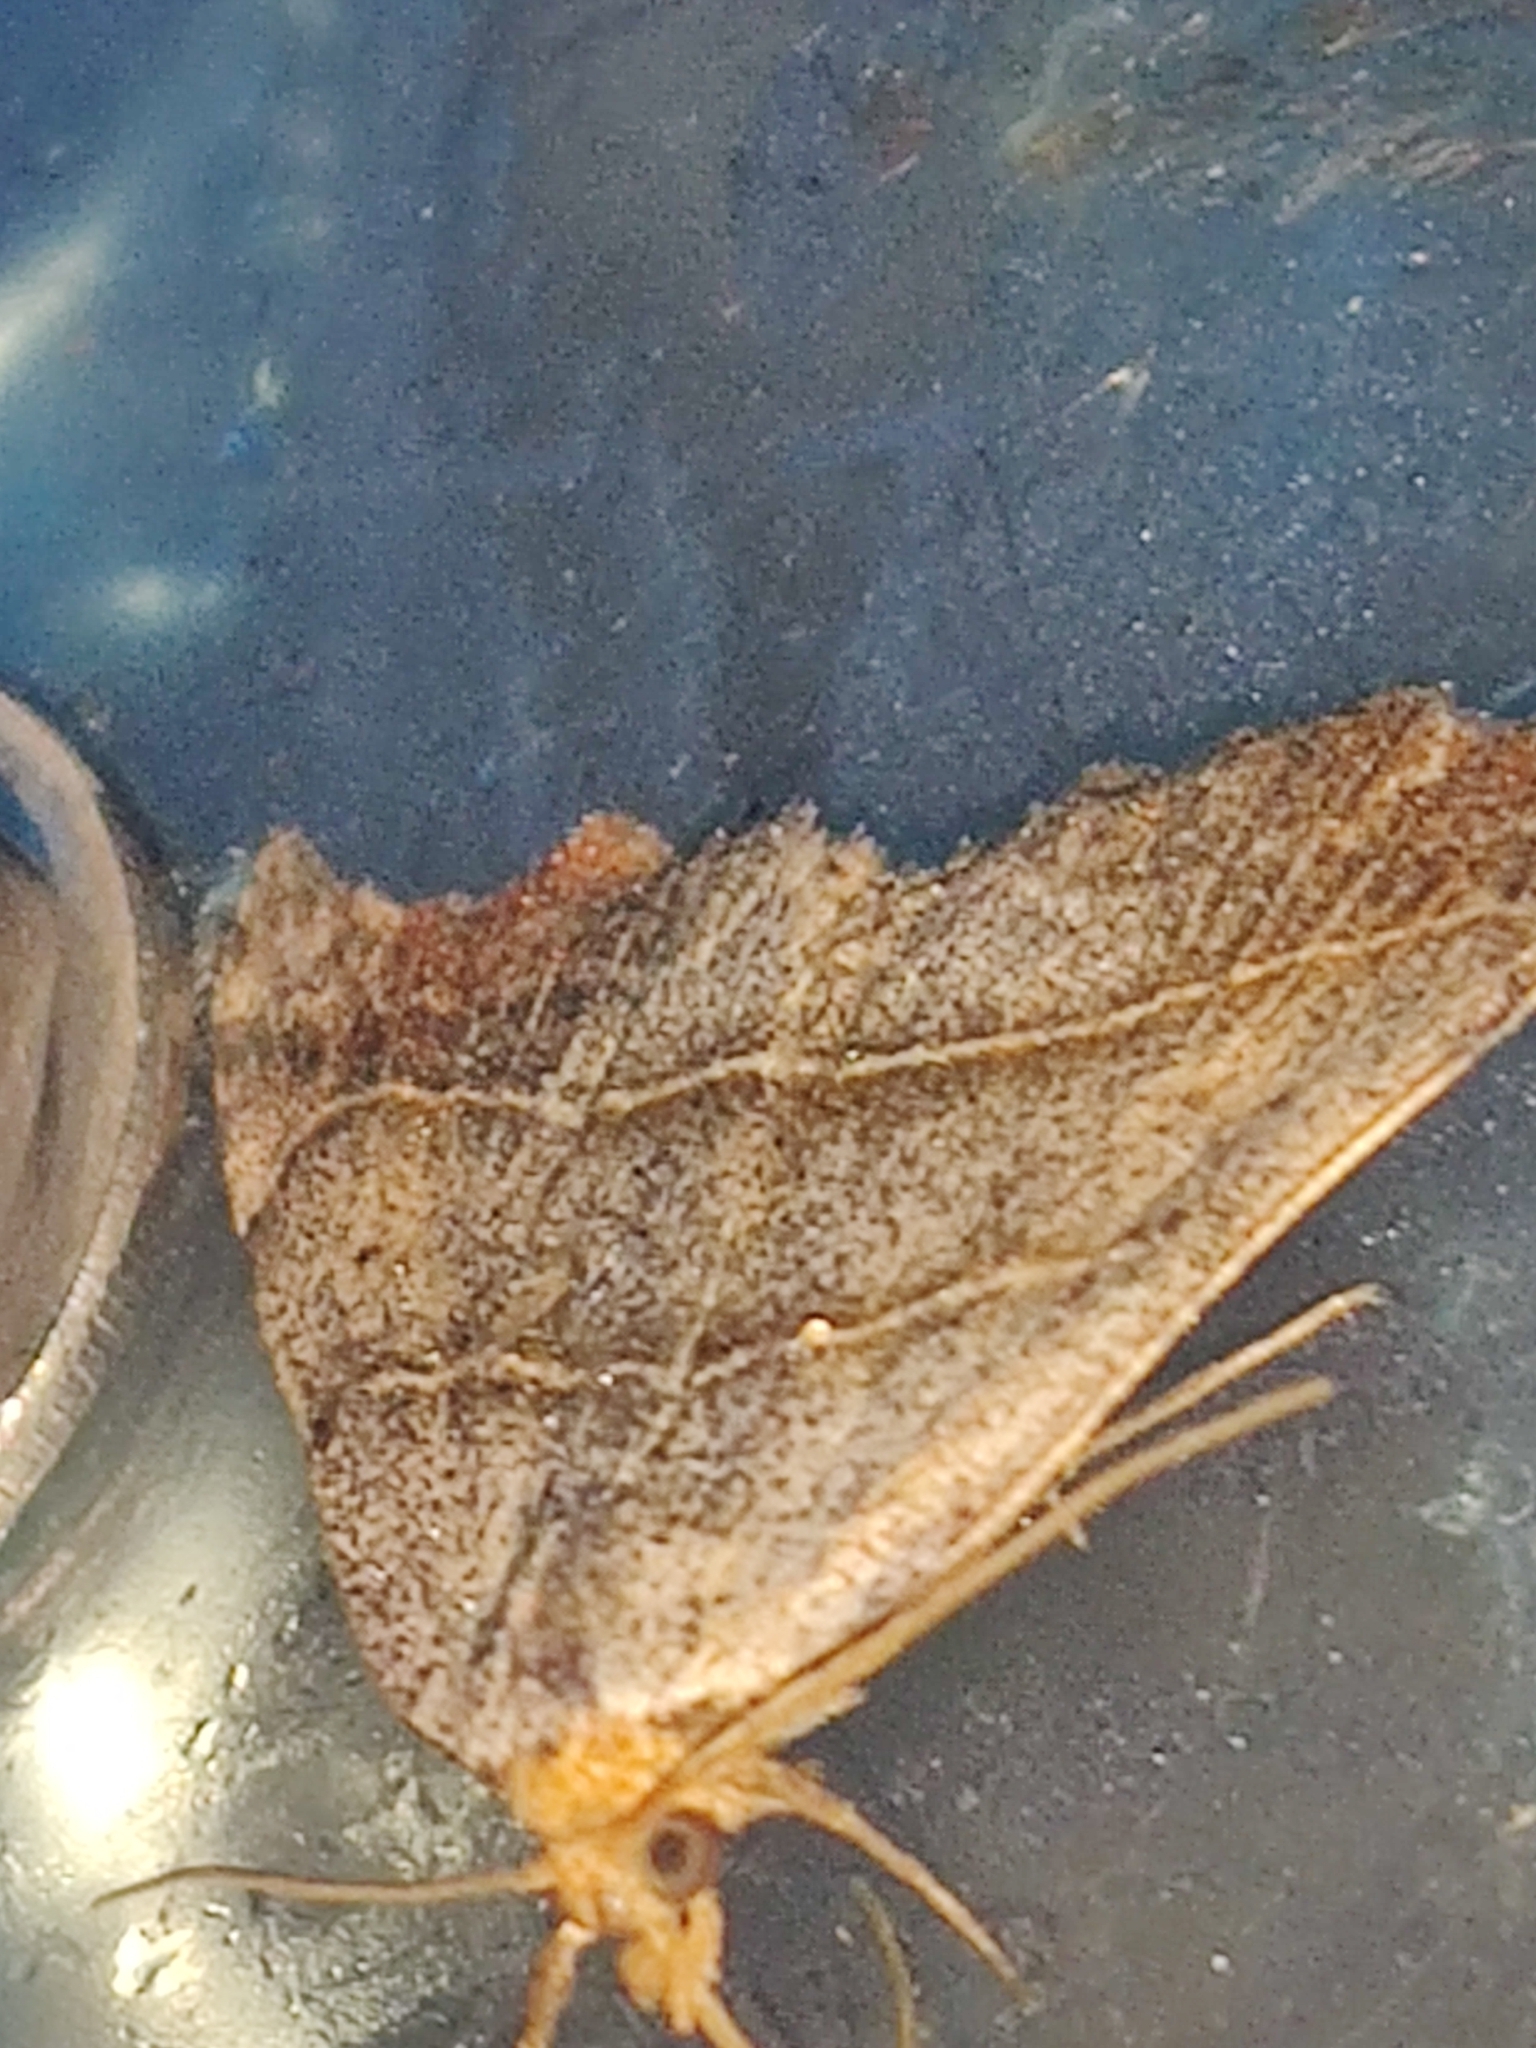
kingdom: Animalia
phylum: Arthropoda
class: Insecta
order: Lepidoptera
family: Erebidae
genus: Laspeyria
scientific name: Laspeyria flexula
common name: Beautiful hook-tip
